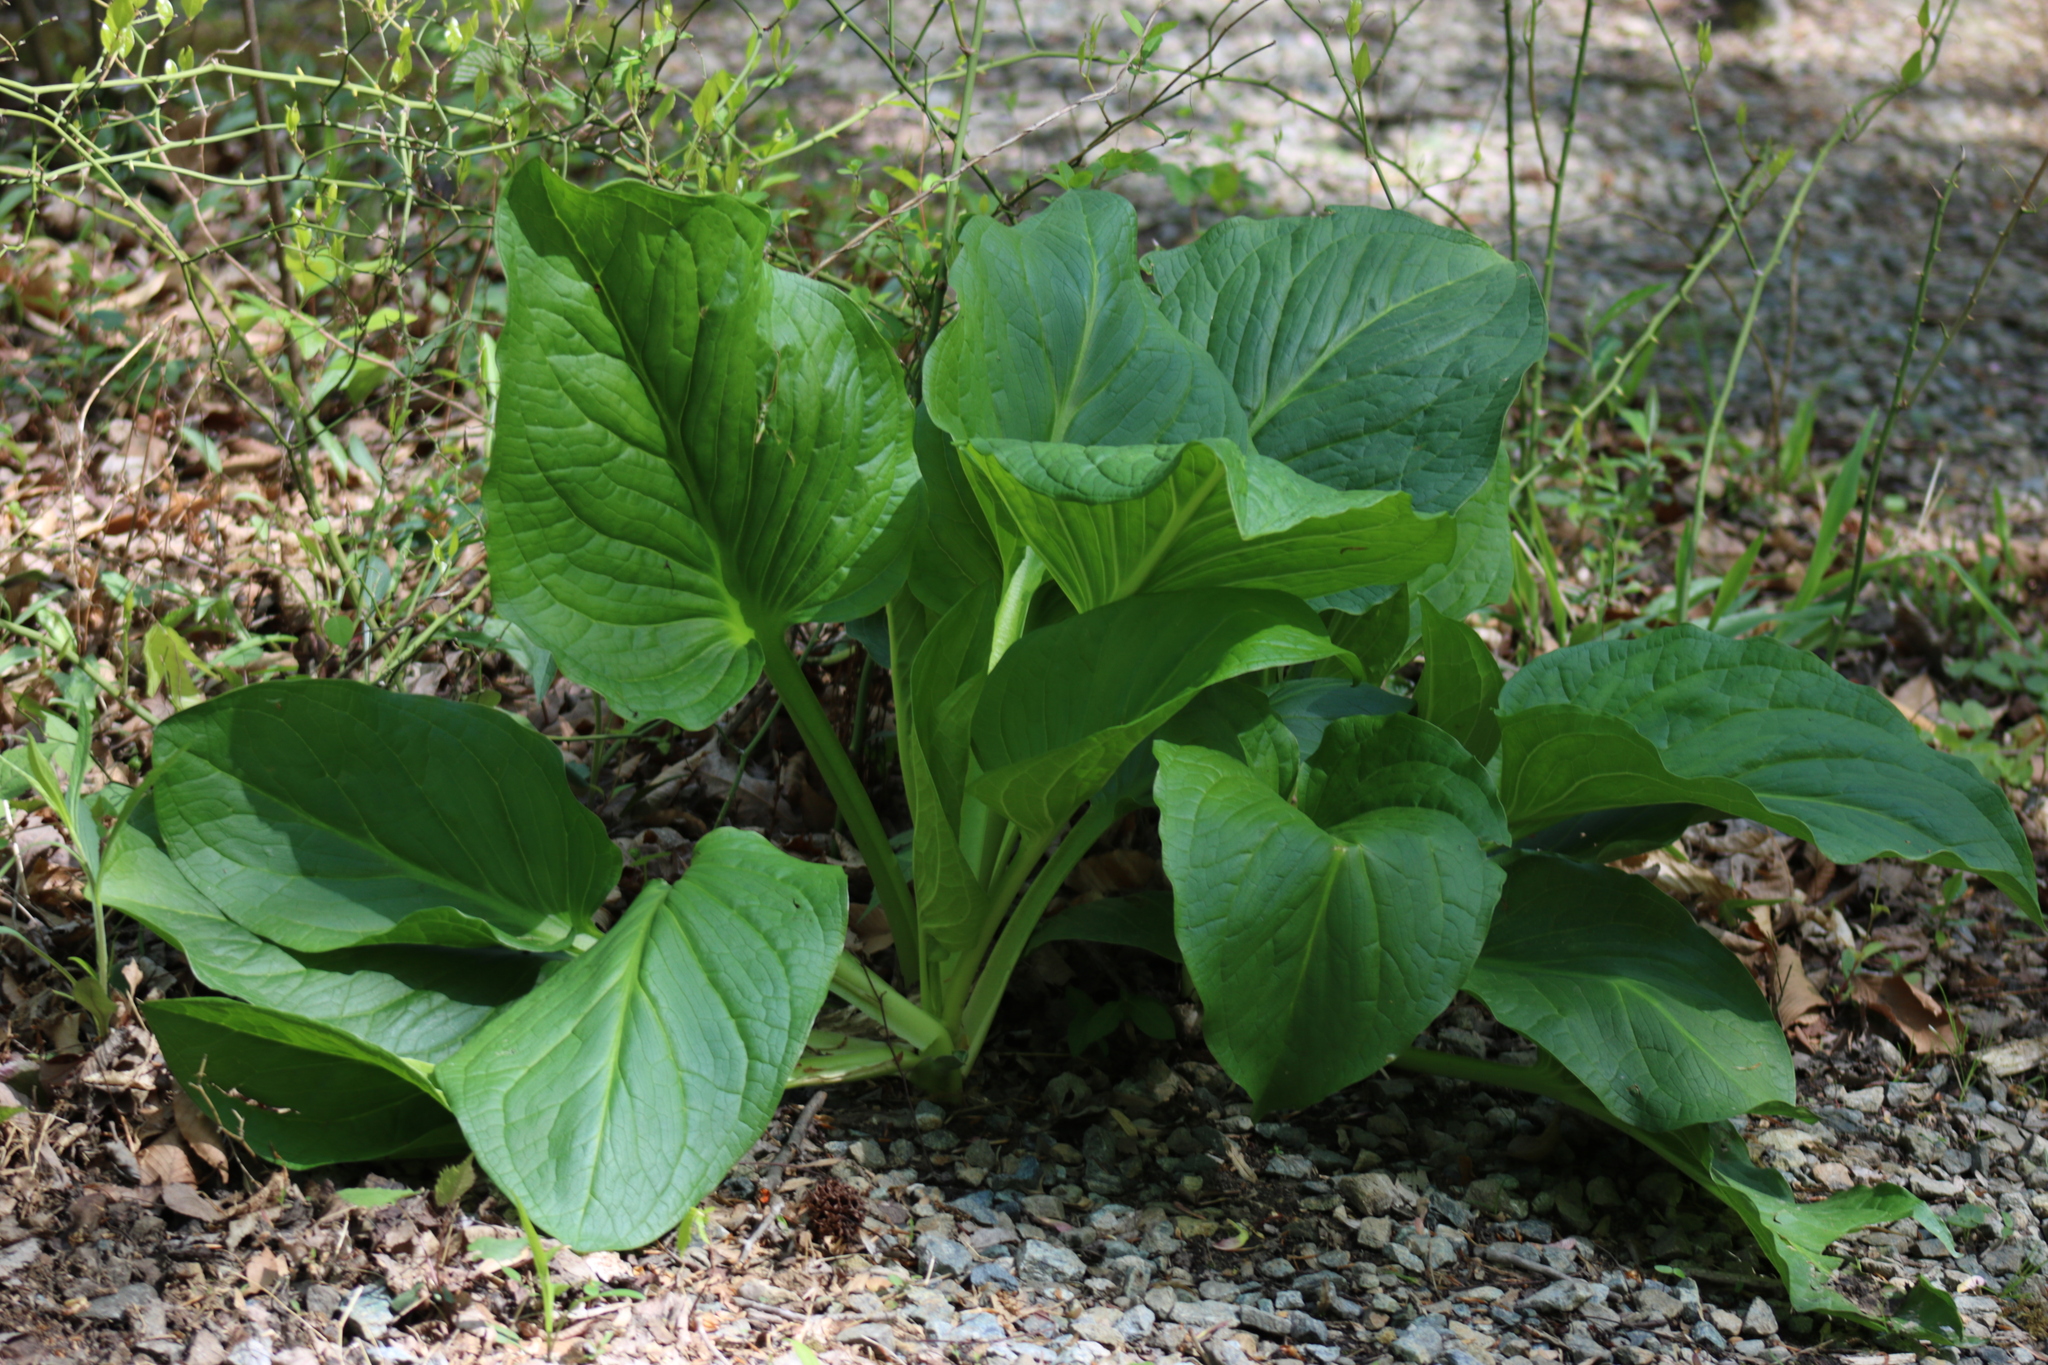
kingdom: Plantae
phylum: Tracheophyta
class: Liliopsida
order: Alismatales
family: Araceae
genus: Symplocarpus
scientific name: Symplocarpus foetidus
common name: Eastern skunk cabbage
